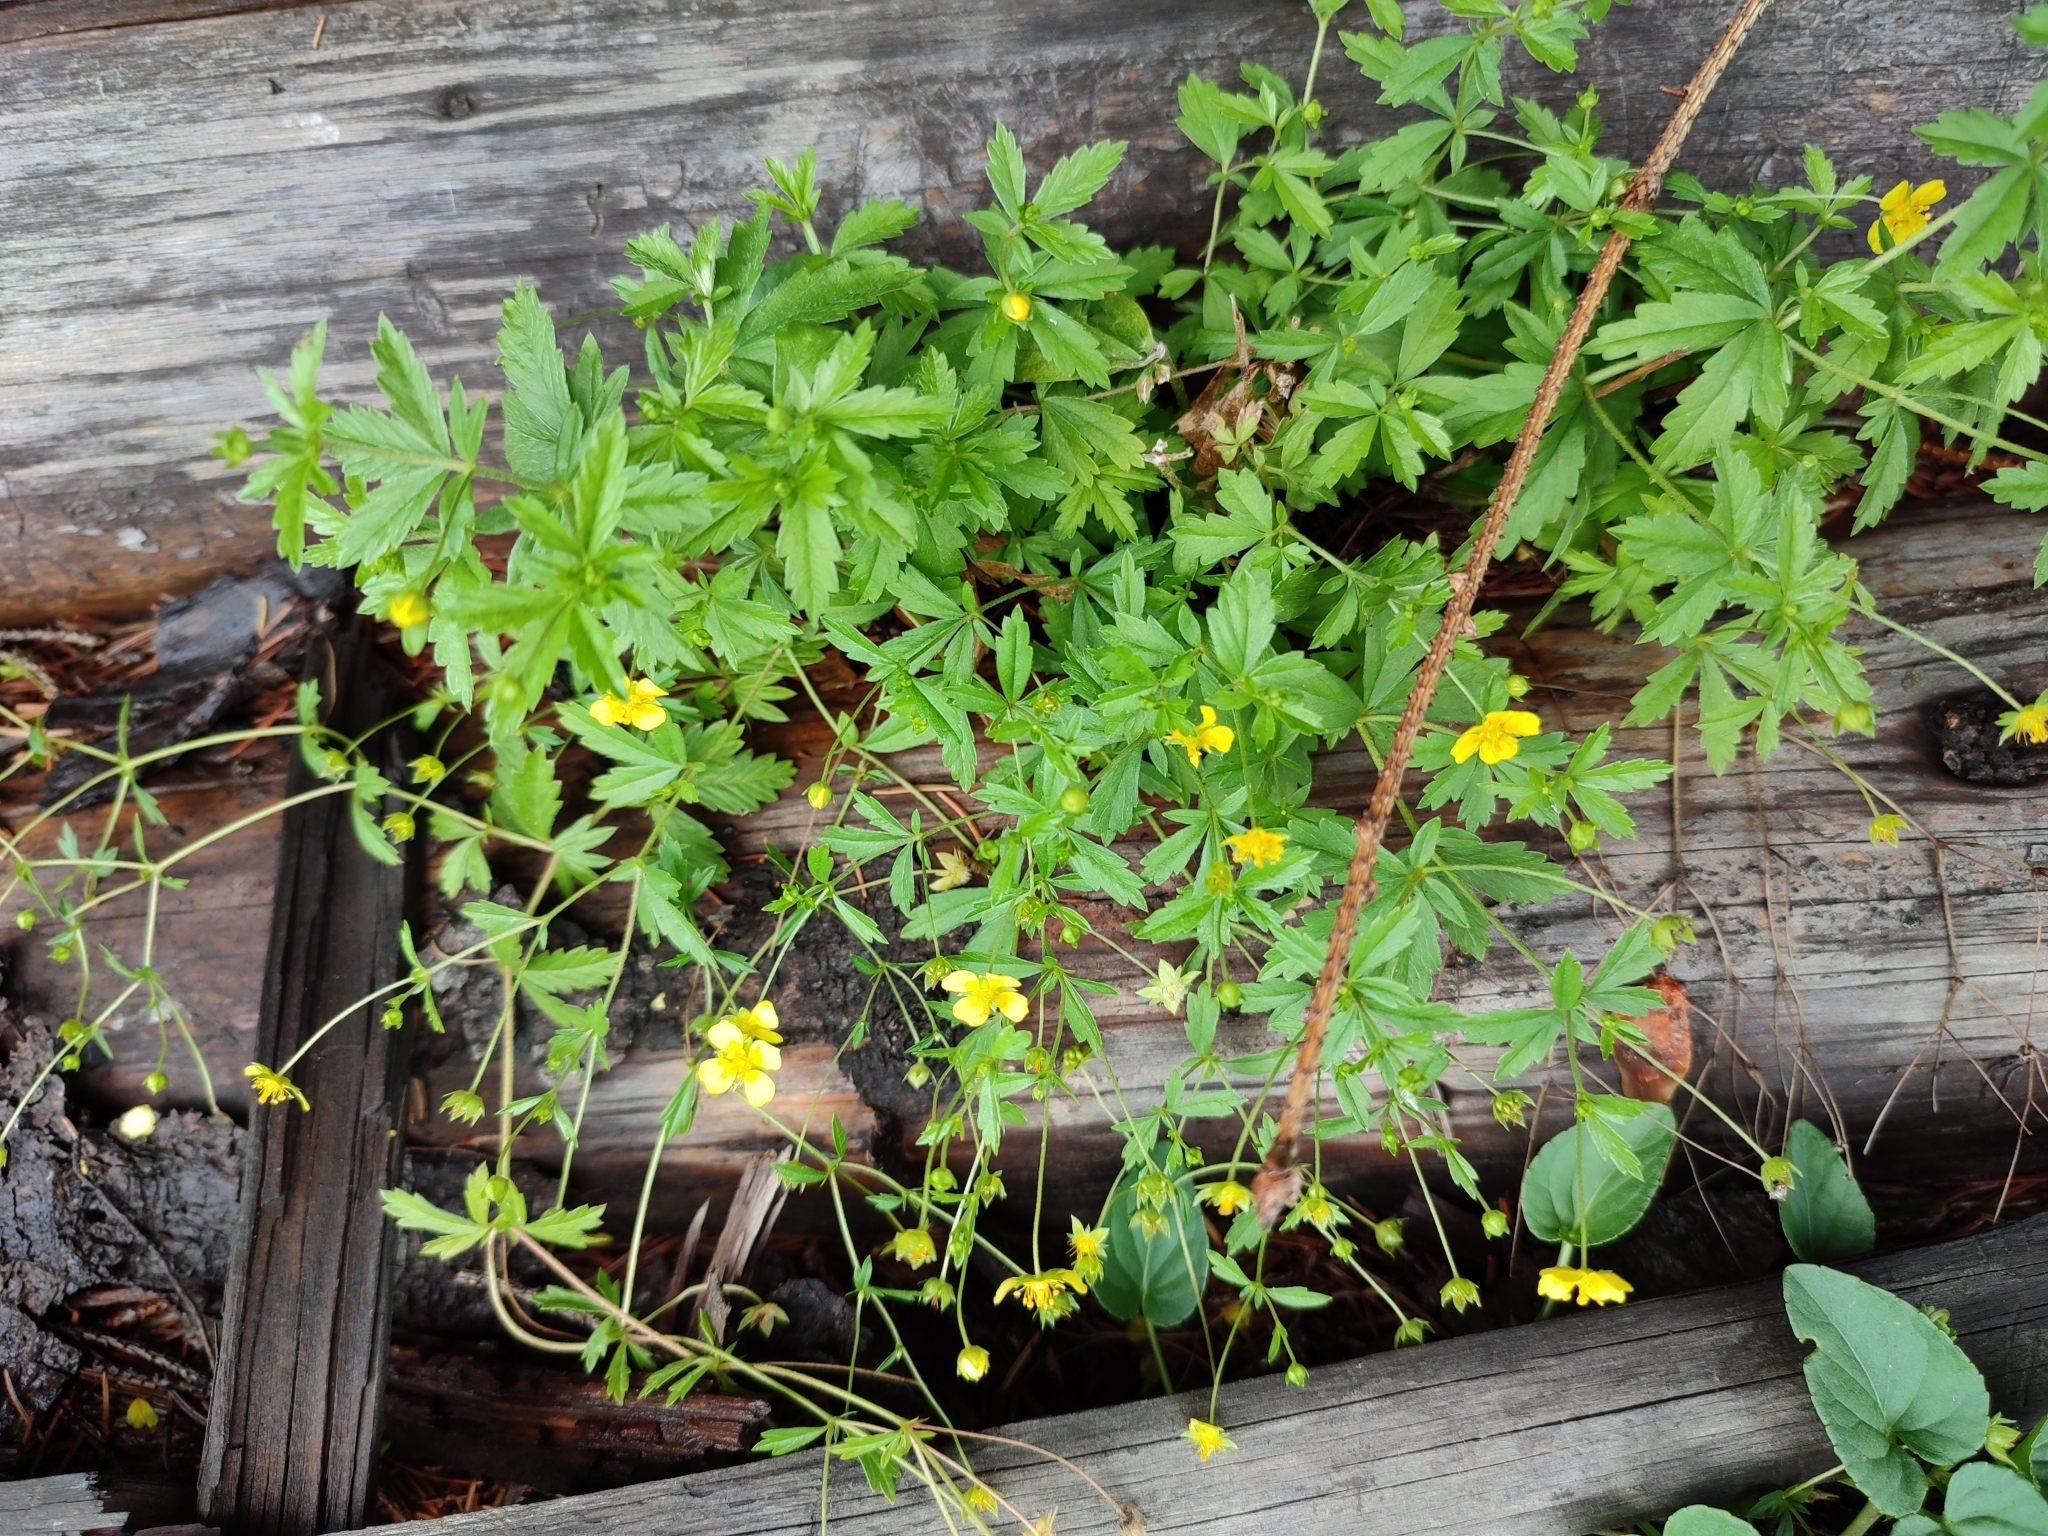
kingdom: Plantae
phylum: Tracheophyta
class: Magnoliopsida
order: Rosales
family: Rosaceae
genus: Potentilla
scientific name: Potentilla erecta
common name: Tormentil
